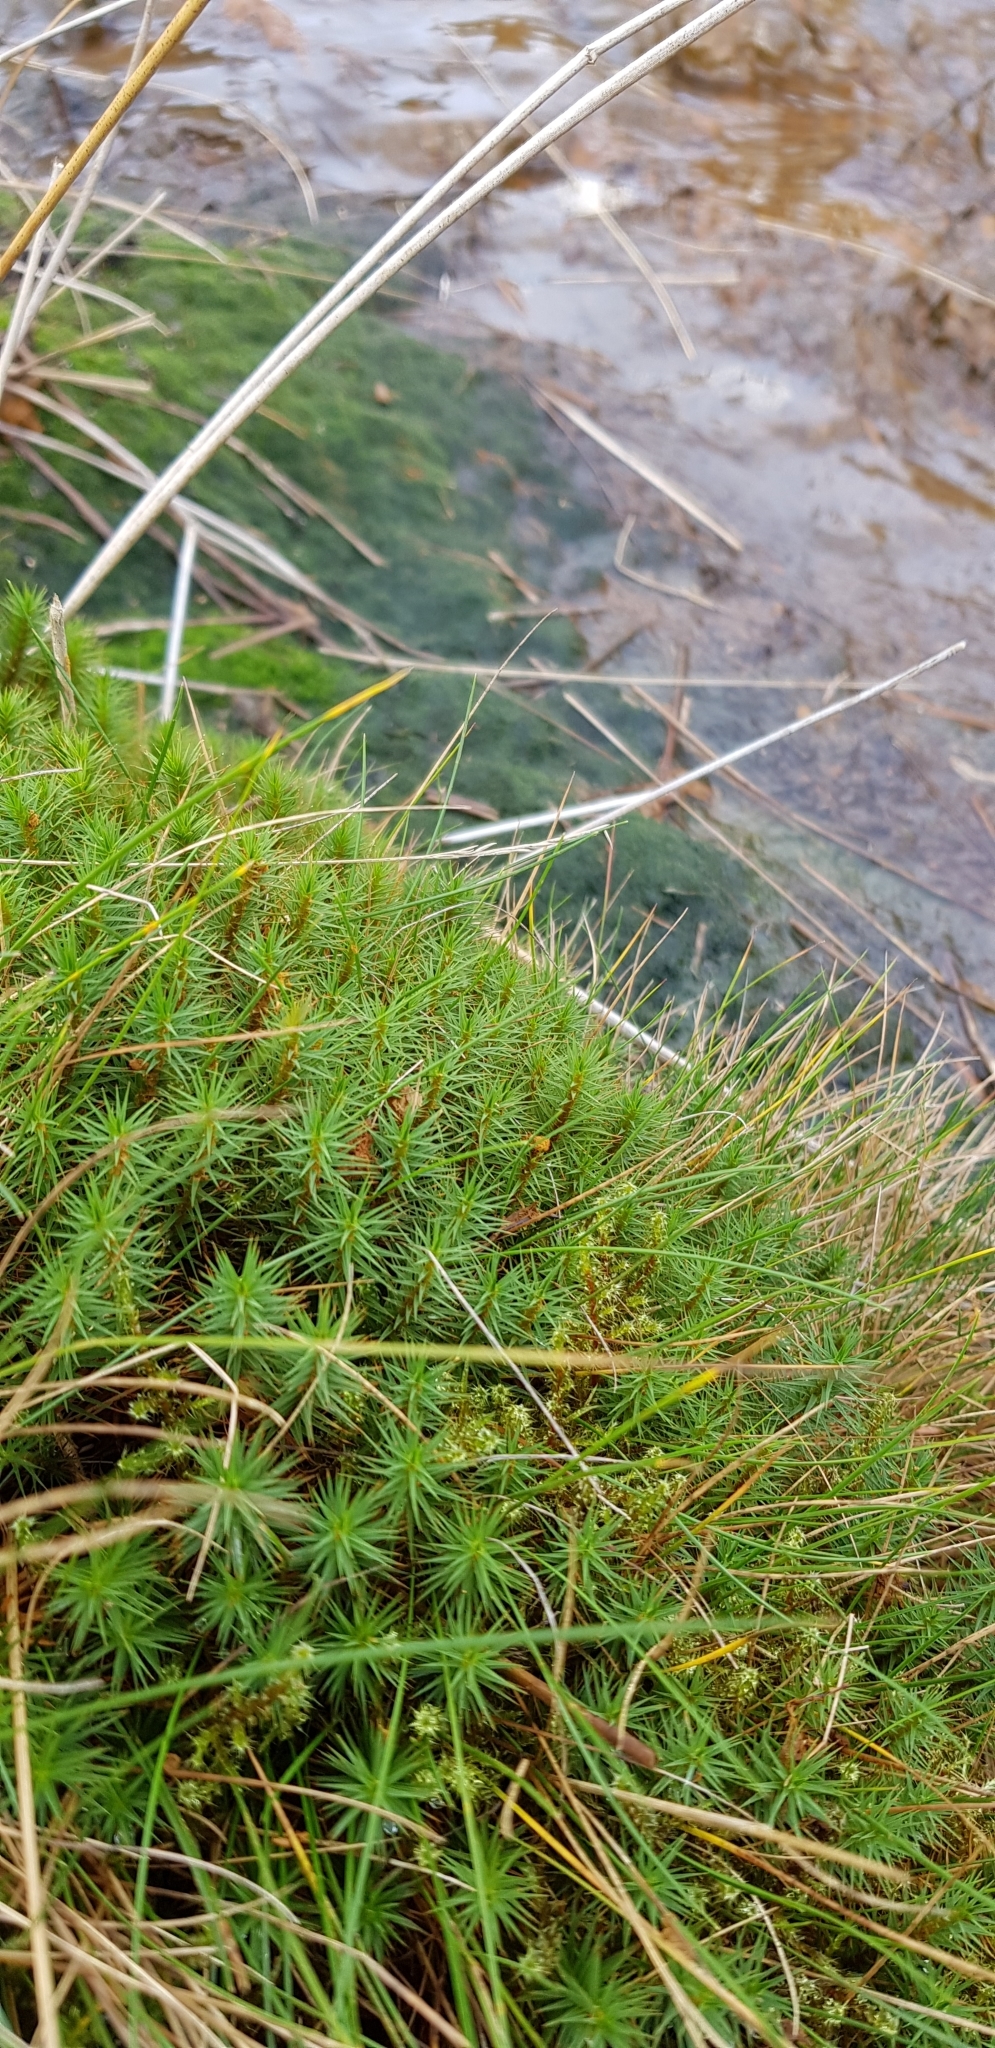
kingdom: Plantae
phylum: Bryophyta
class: Polytrichopsida
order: Polytrichales
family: Polytrichaceae
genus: Polytrichum
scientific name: Polytrichum commune
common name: Common haircap
